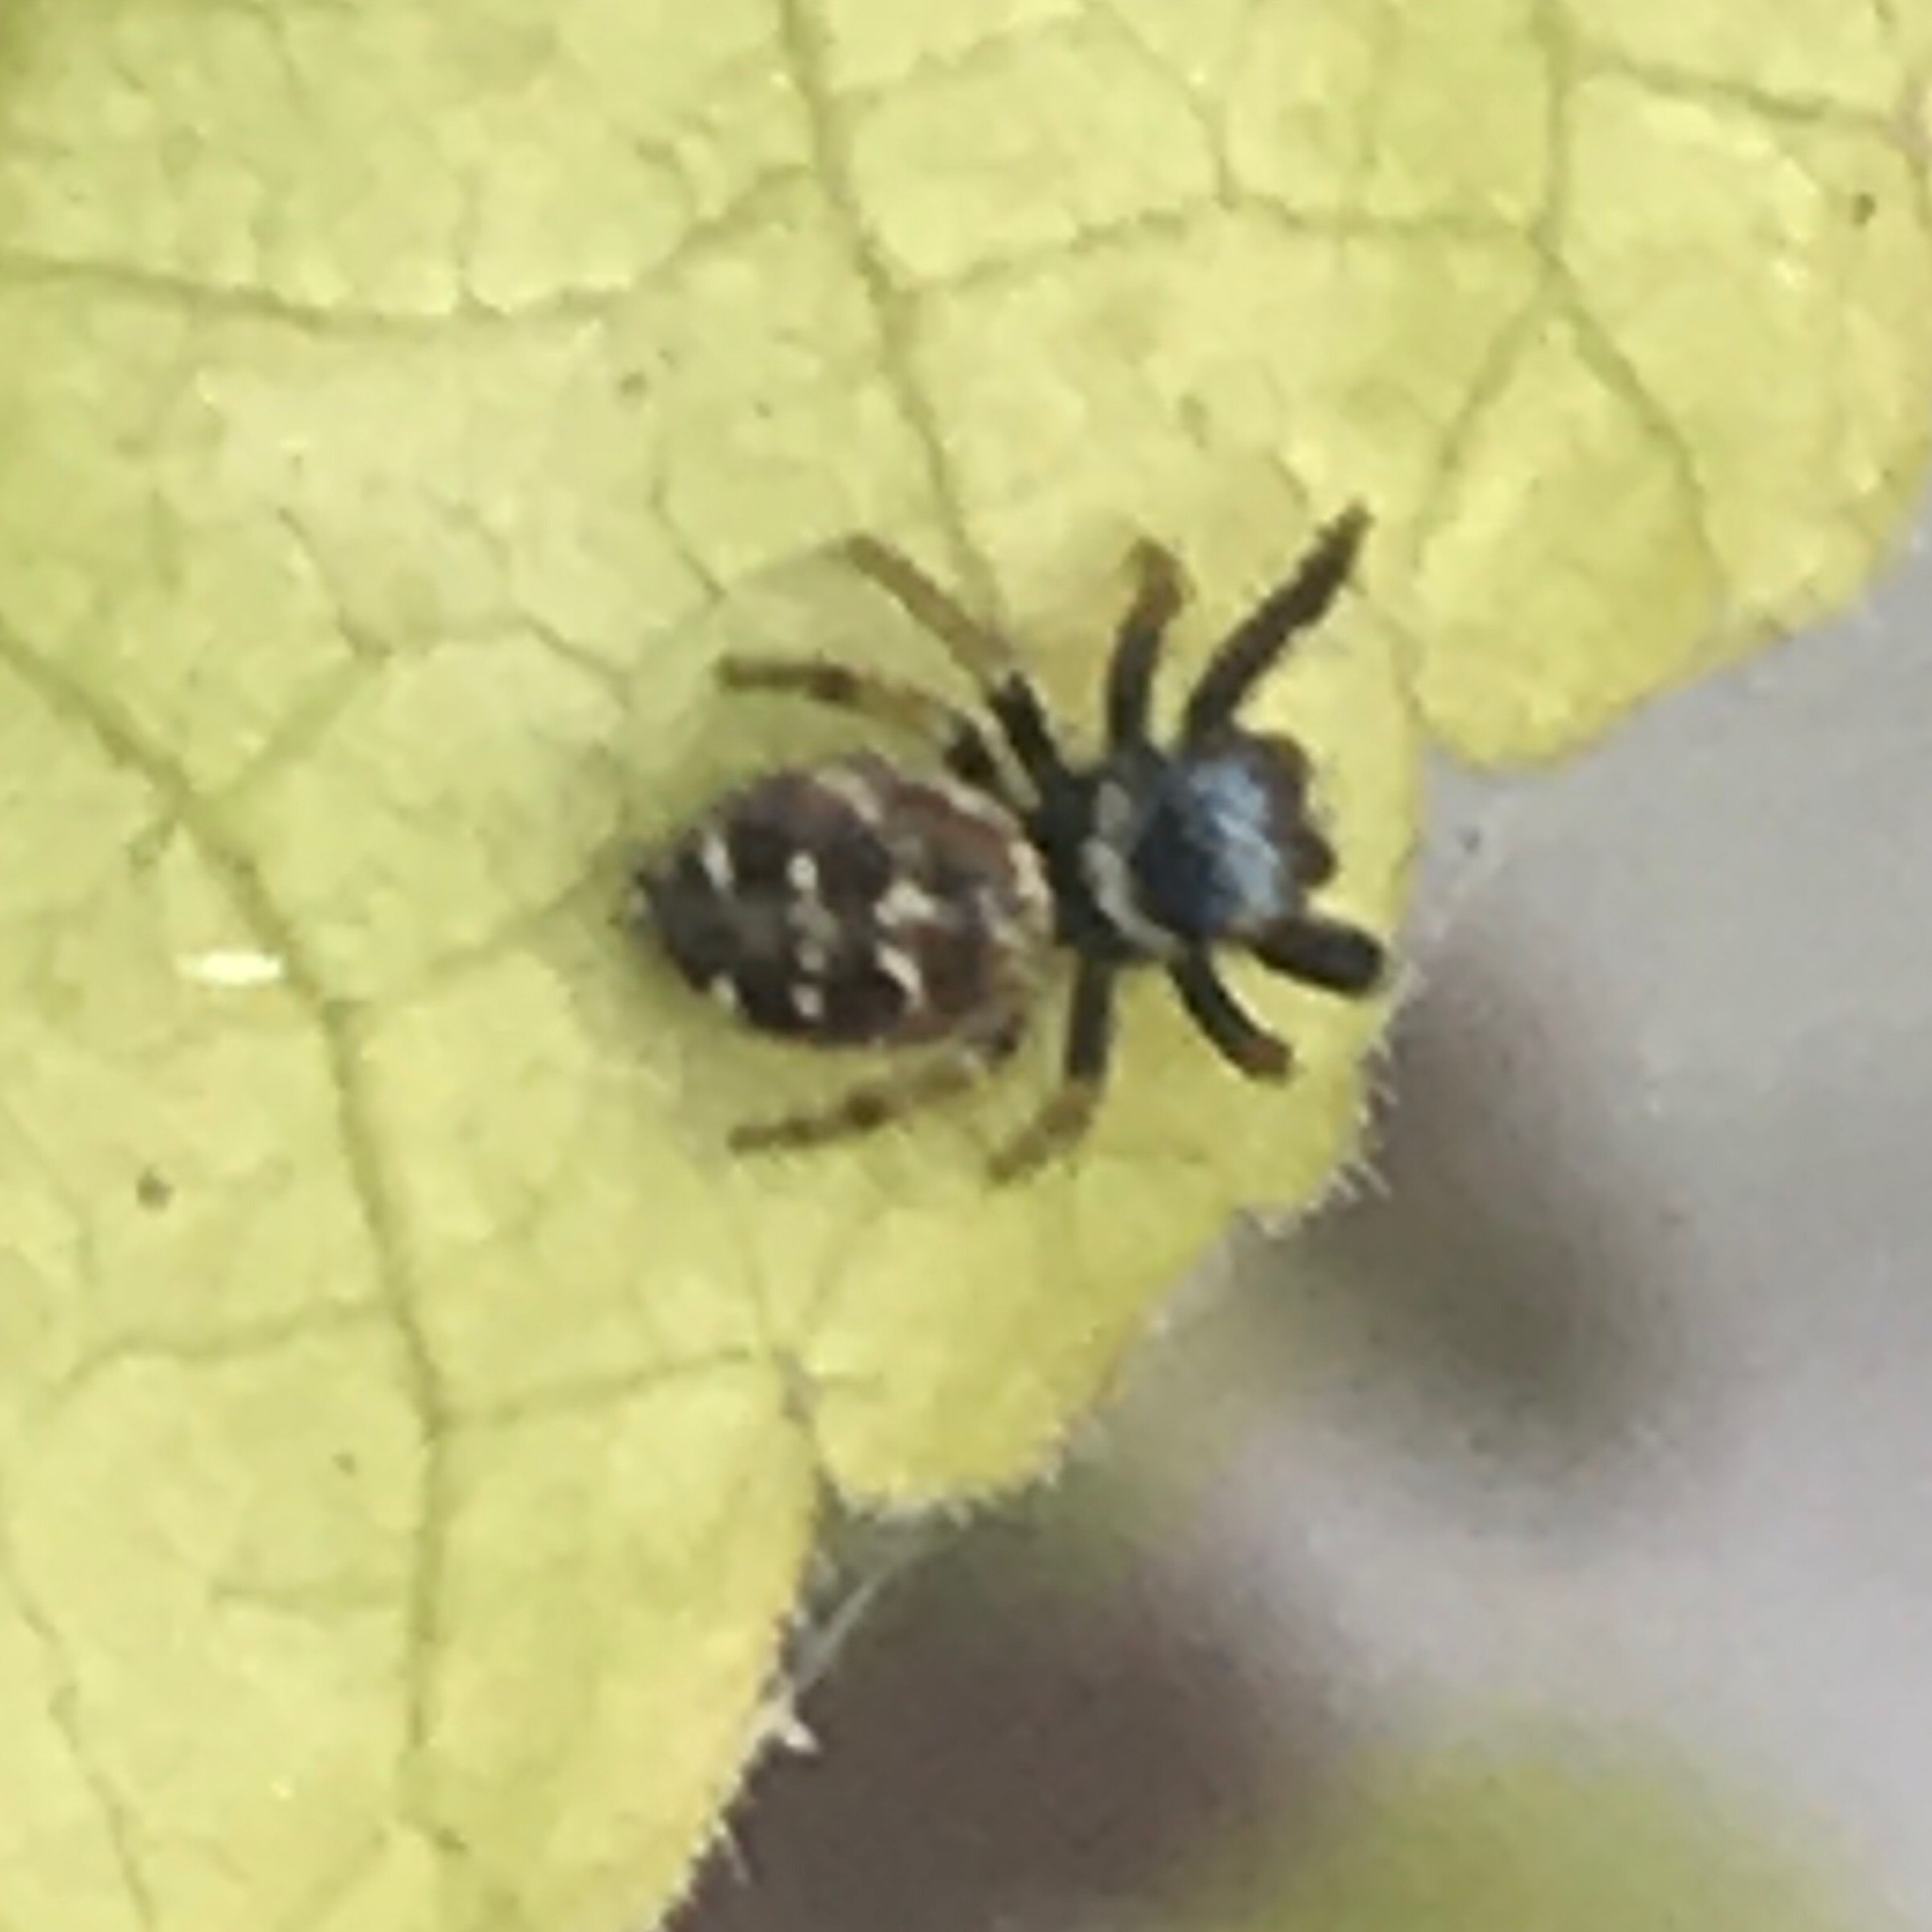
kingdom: Animalia
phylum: Arthropoda
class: Arachnida
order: Araneae
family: Salticidae
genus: Paraphidippus
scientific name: Paraphidippus aurantius
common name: Jumping spiders
